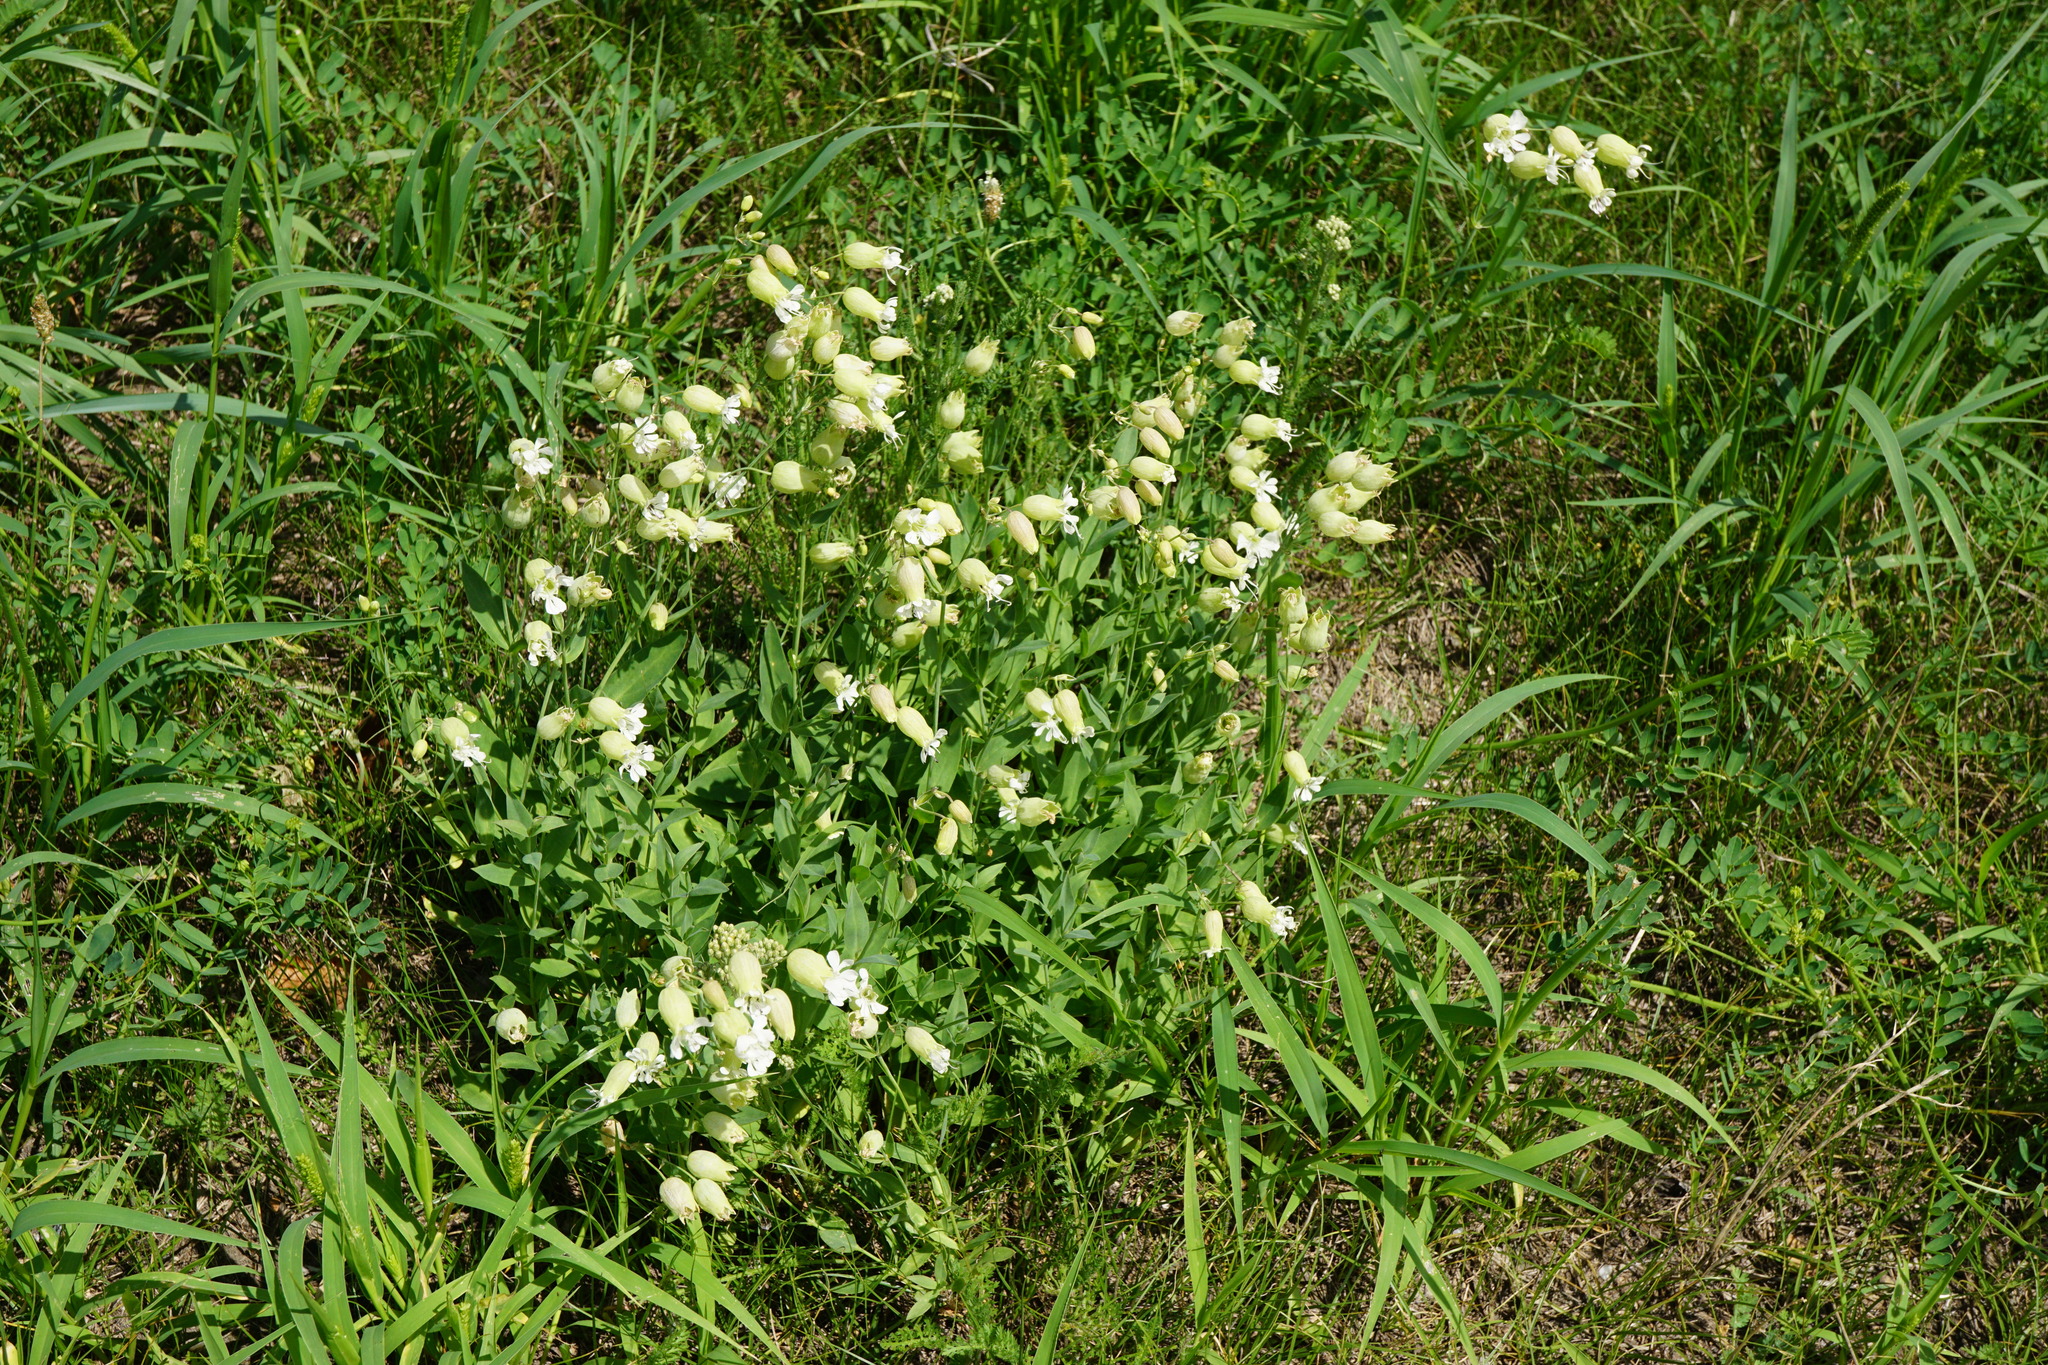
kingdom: Plantae
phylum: Tracheophyta
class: Magnoliopsida
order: Caryophyllales
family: Caryophyllaceae
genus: Silene
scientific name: Silene vulgaris
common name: Bladder campion
